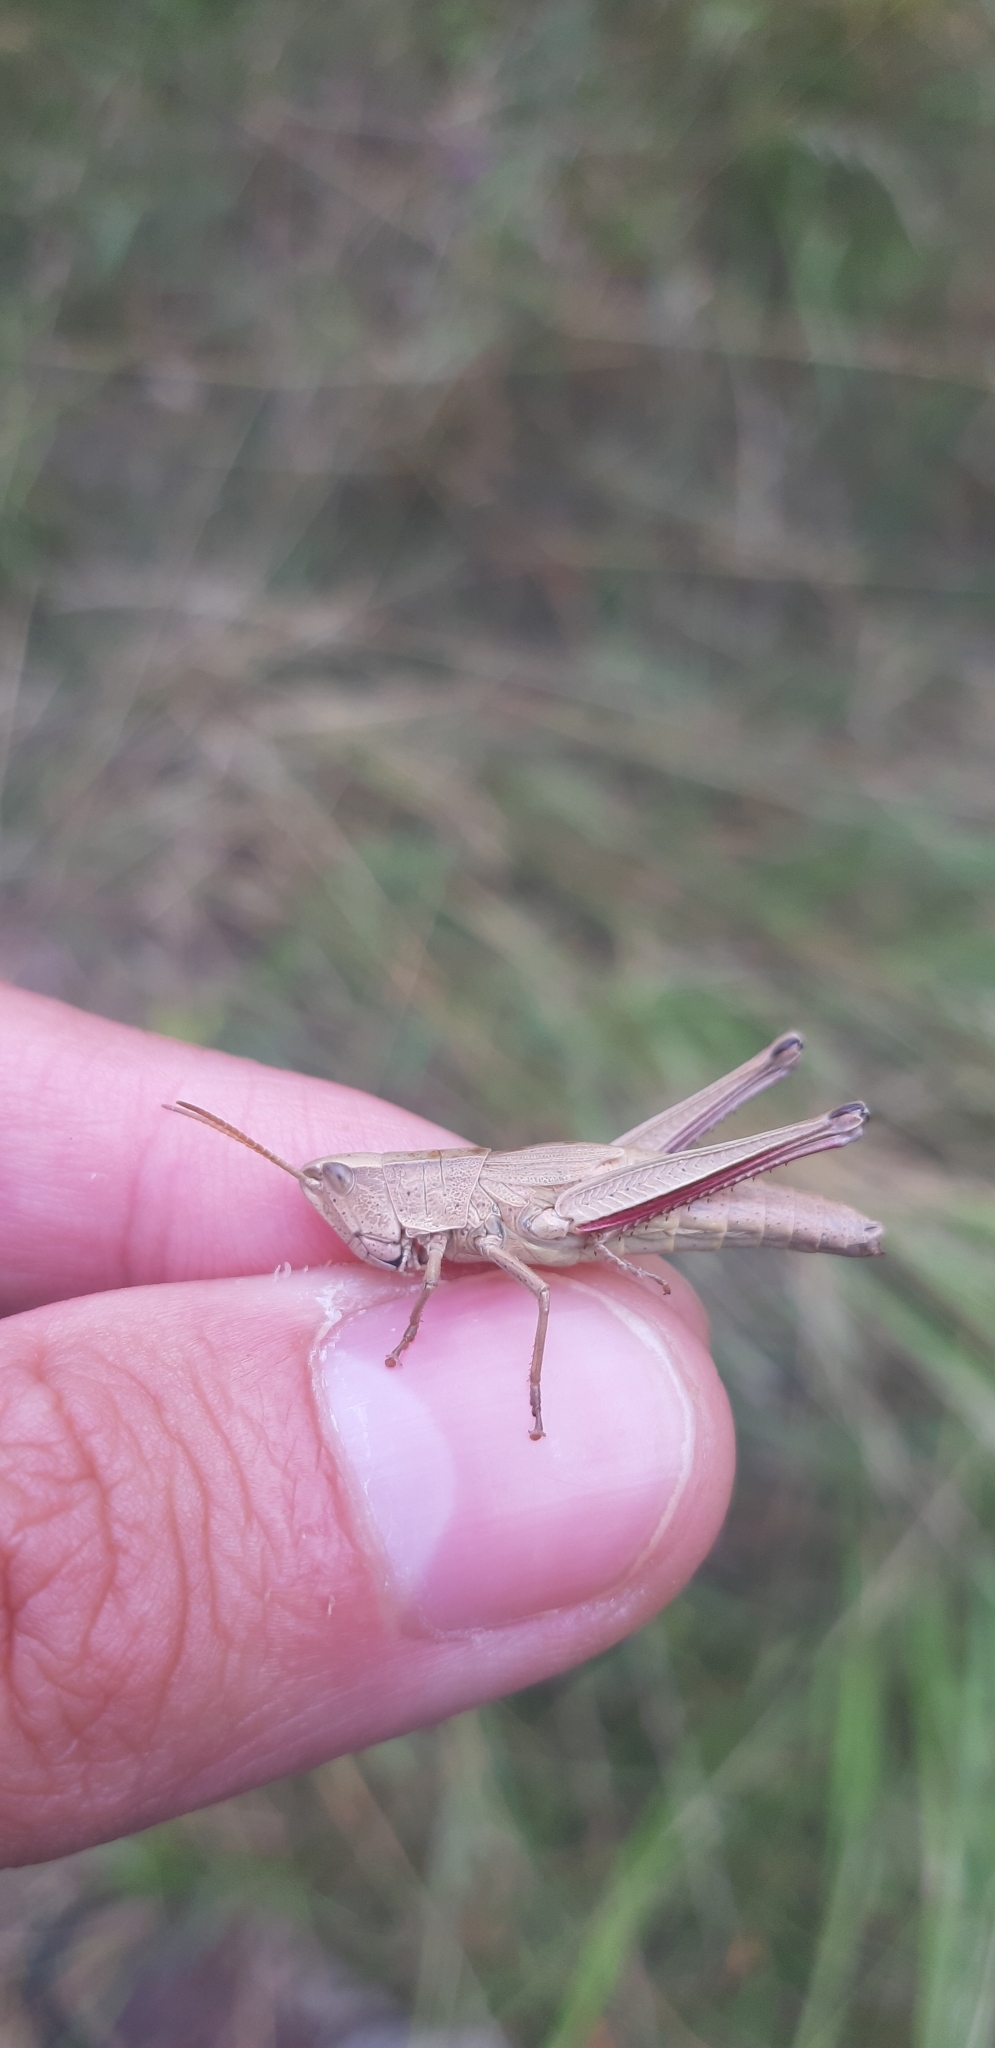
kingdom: Animalia
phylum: Arthropoda
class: Insecta
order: Orthoptera
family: Acrididae
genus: Chrysochraon
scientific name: Chrysochraon dispar
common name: Large gold grasshopper
